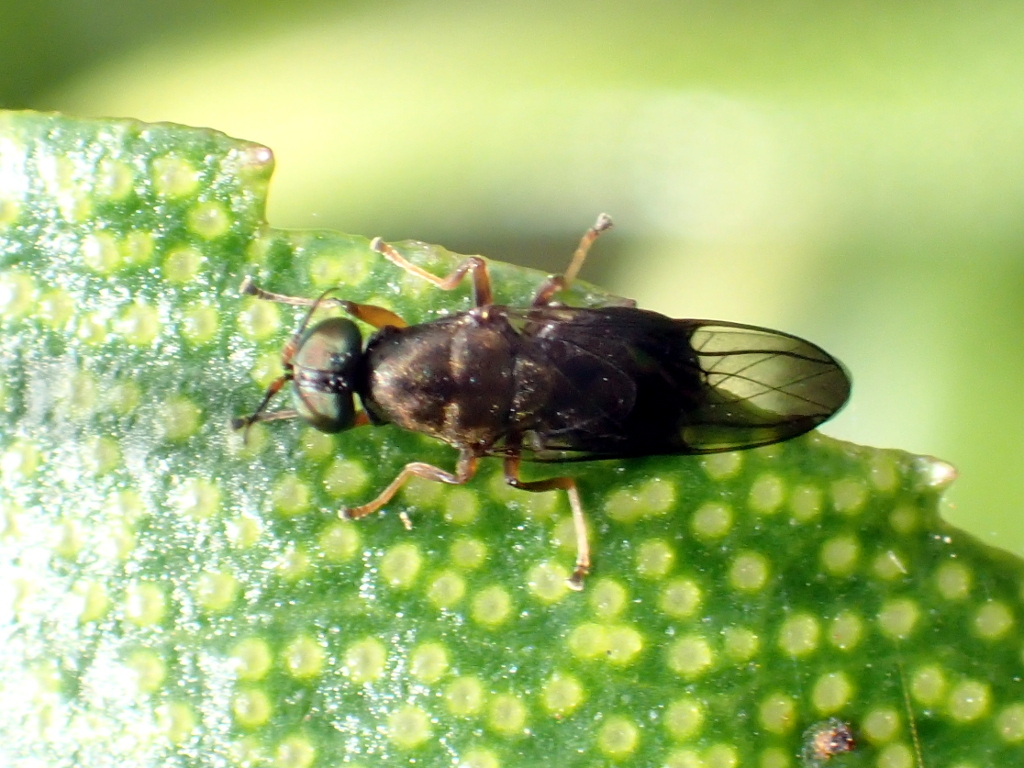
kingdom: Animalia
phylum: Arthropoda
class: Insecta
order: Diptera
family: Stratiomyidae
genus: Dysbiota
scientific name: Dysbiota peregrina
